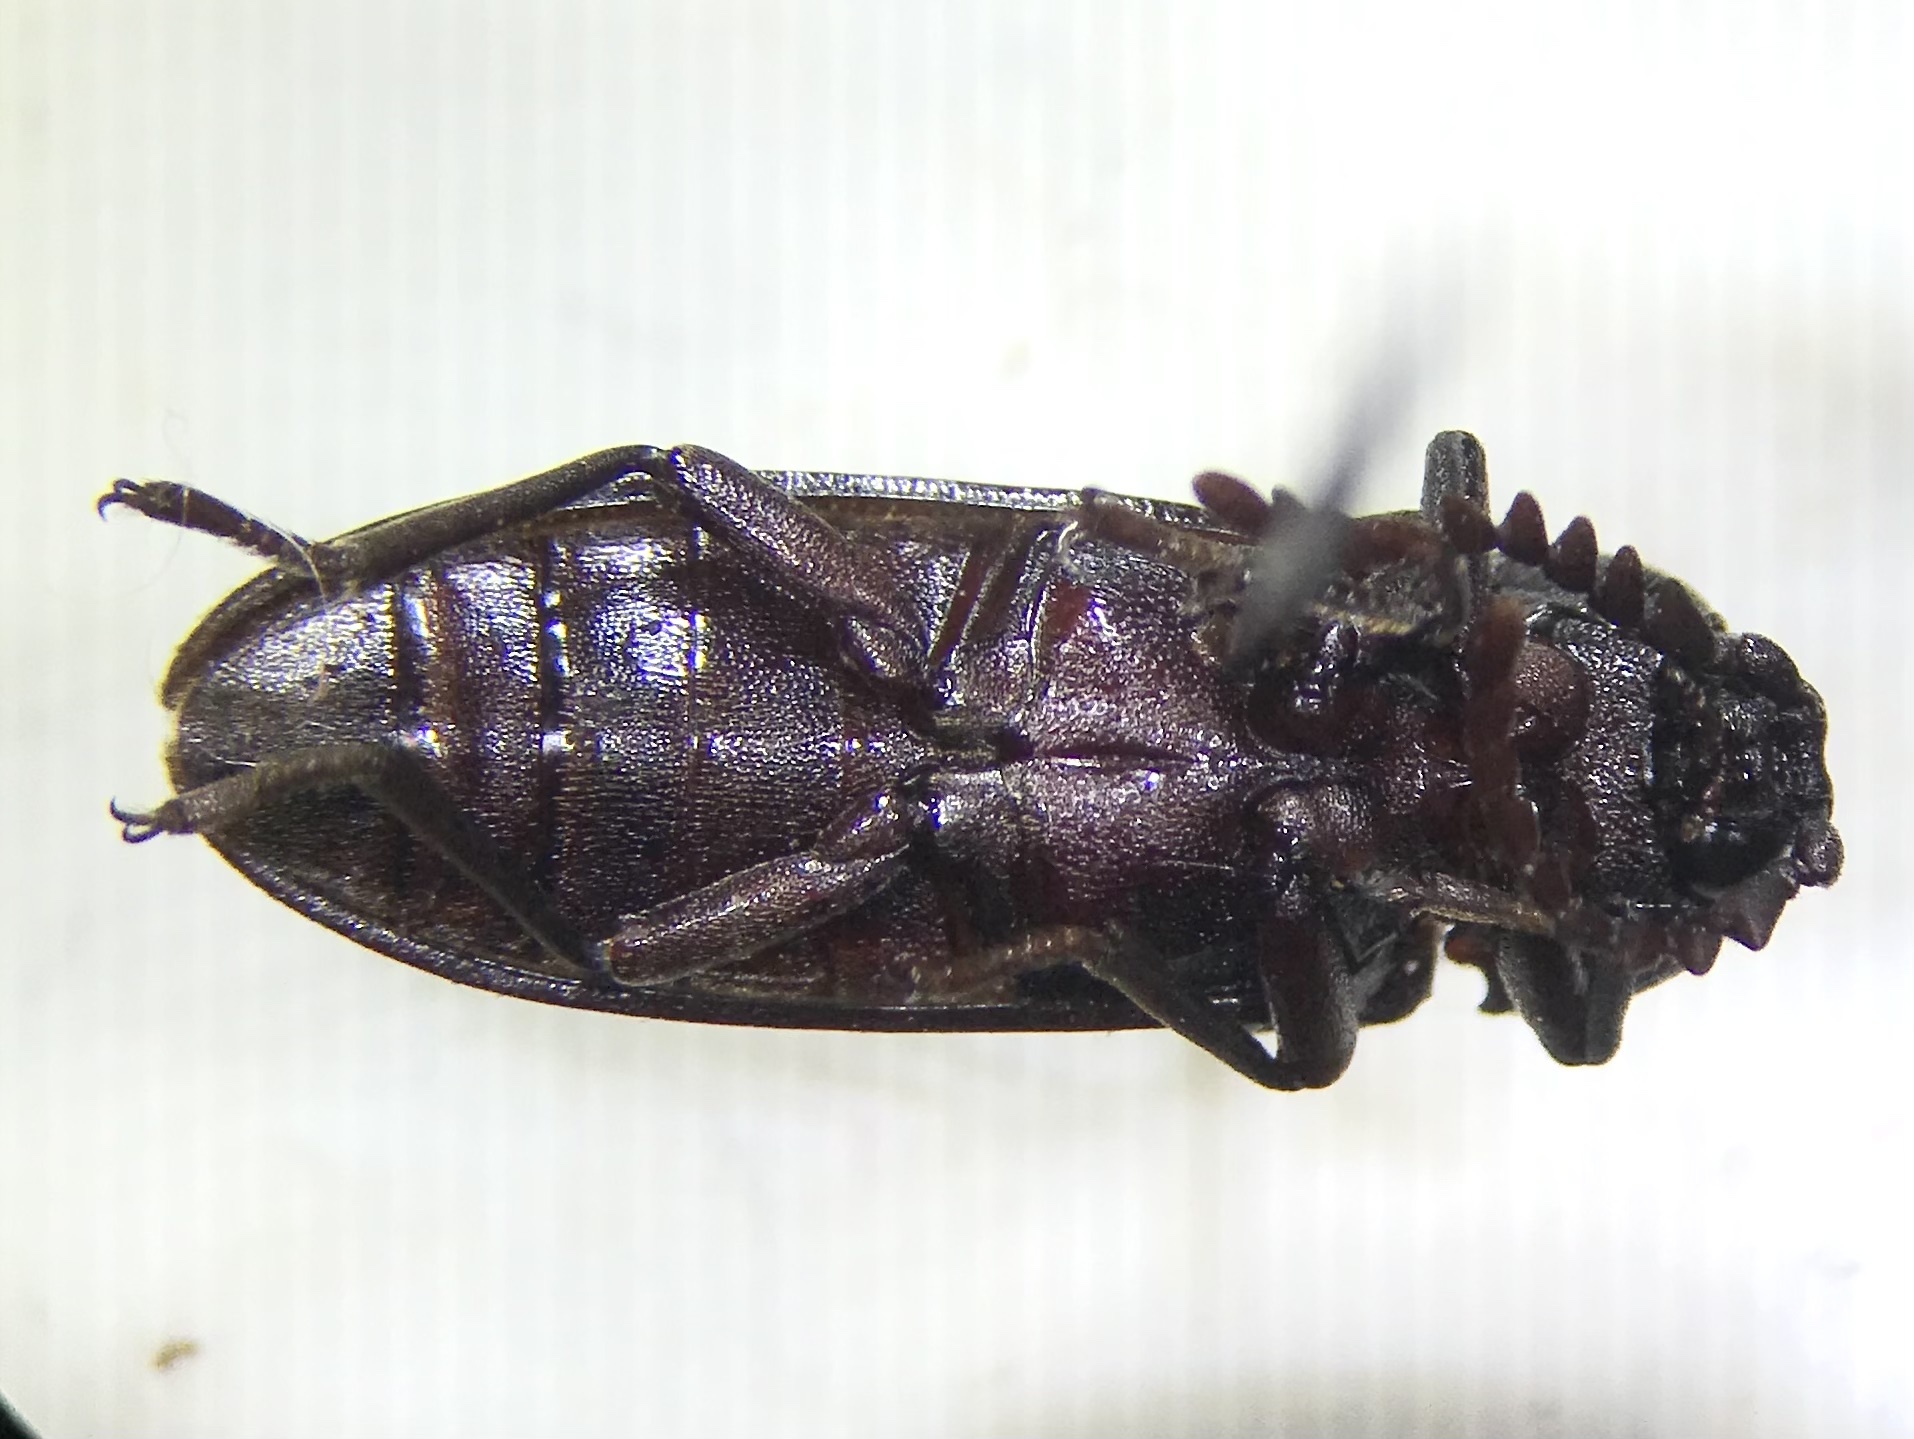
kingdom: Animalia
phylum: Arthropoda
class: Insecta
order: Coleoptera
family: Callirhipidae
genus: Zenoa
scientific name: Zenoa picea
